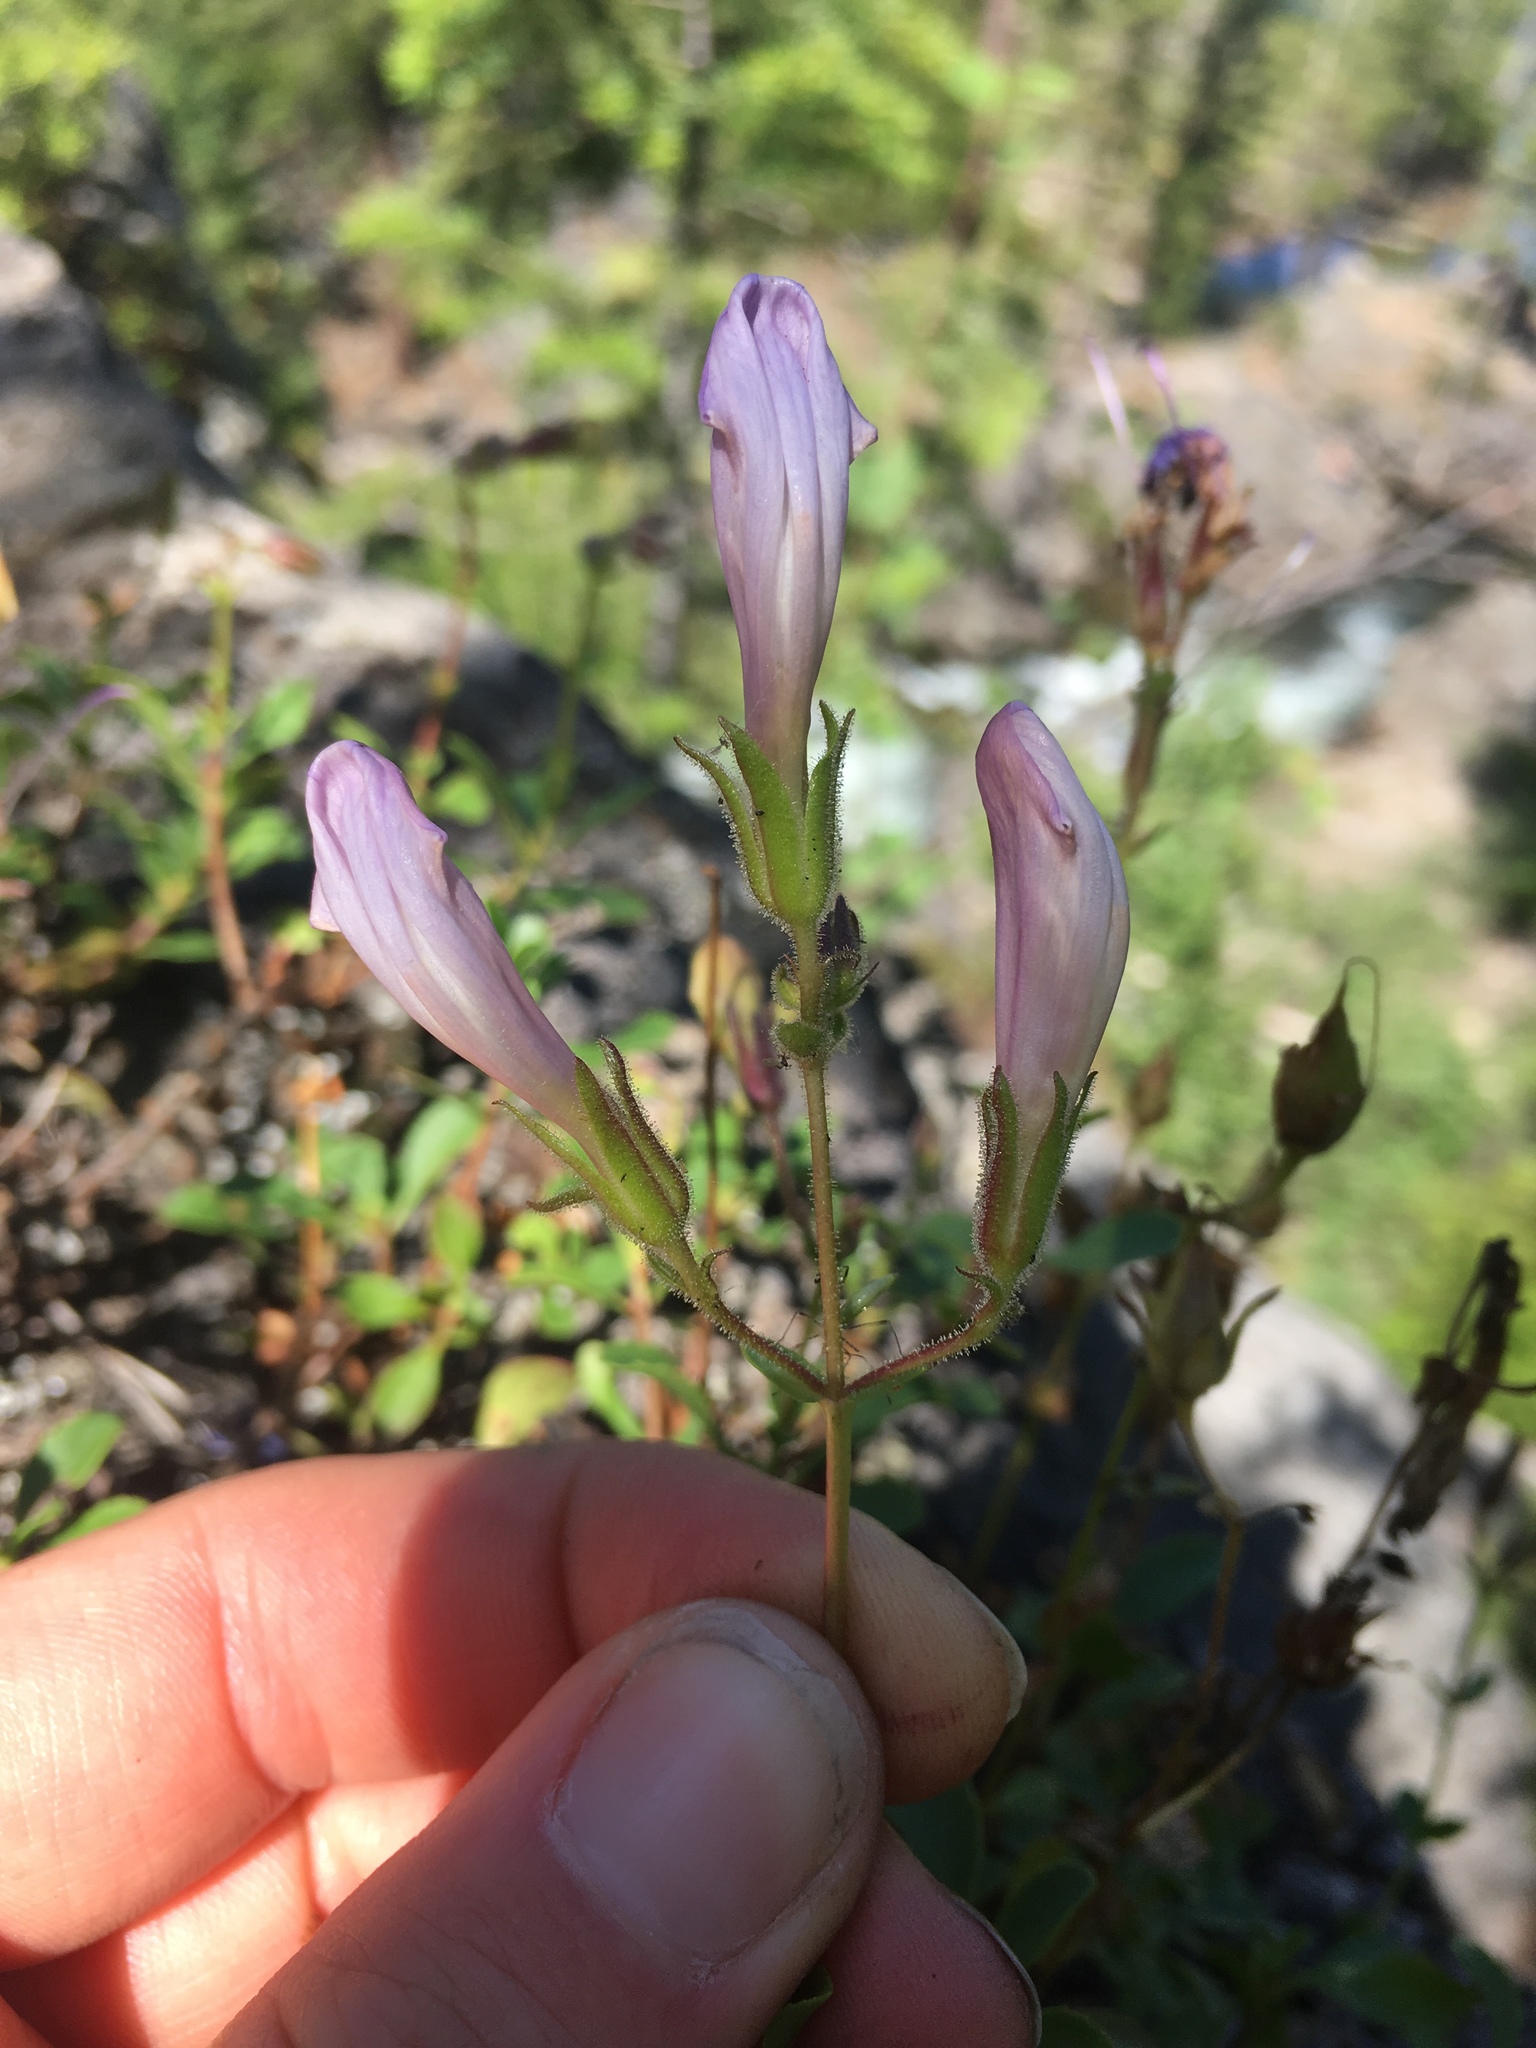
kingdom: Plantae
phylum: Tracheophyta
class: Magnoliopsida
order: Lamiales
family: Plantaginaceae
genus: Penstemon
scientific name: Penstemon ellipticus
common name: Alpine beardtongue
